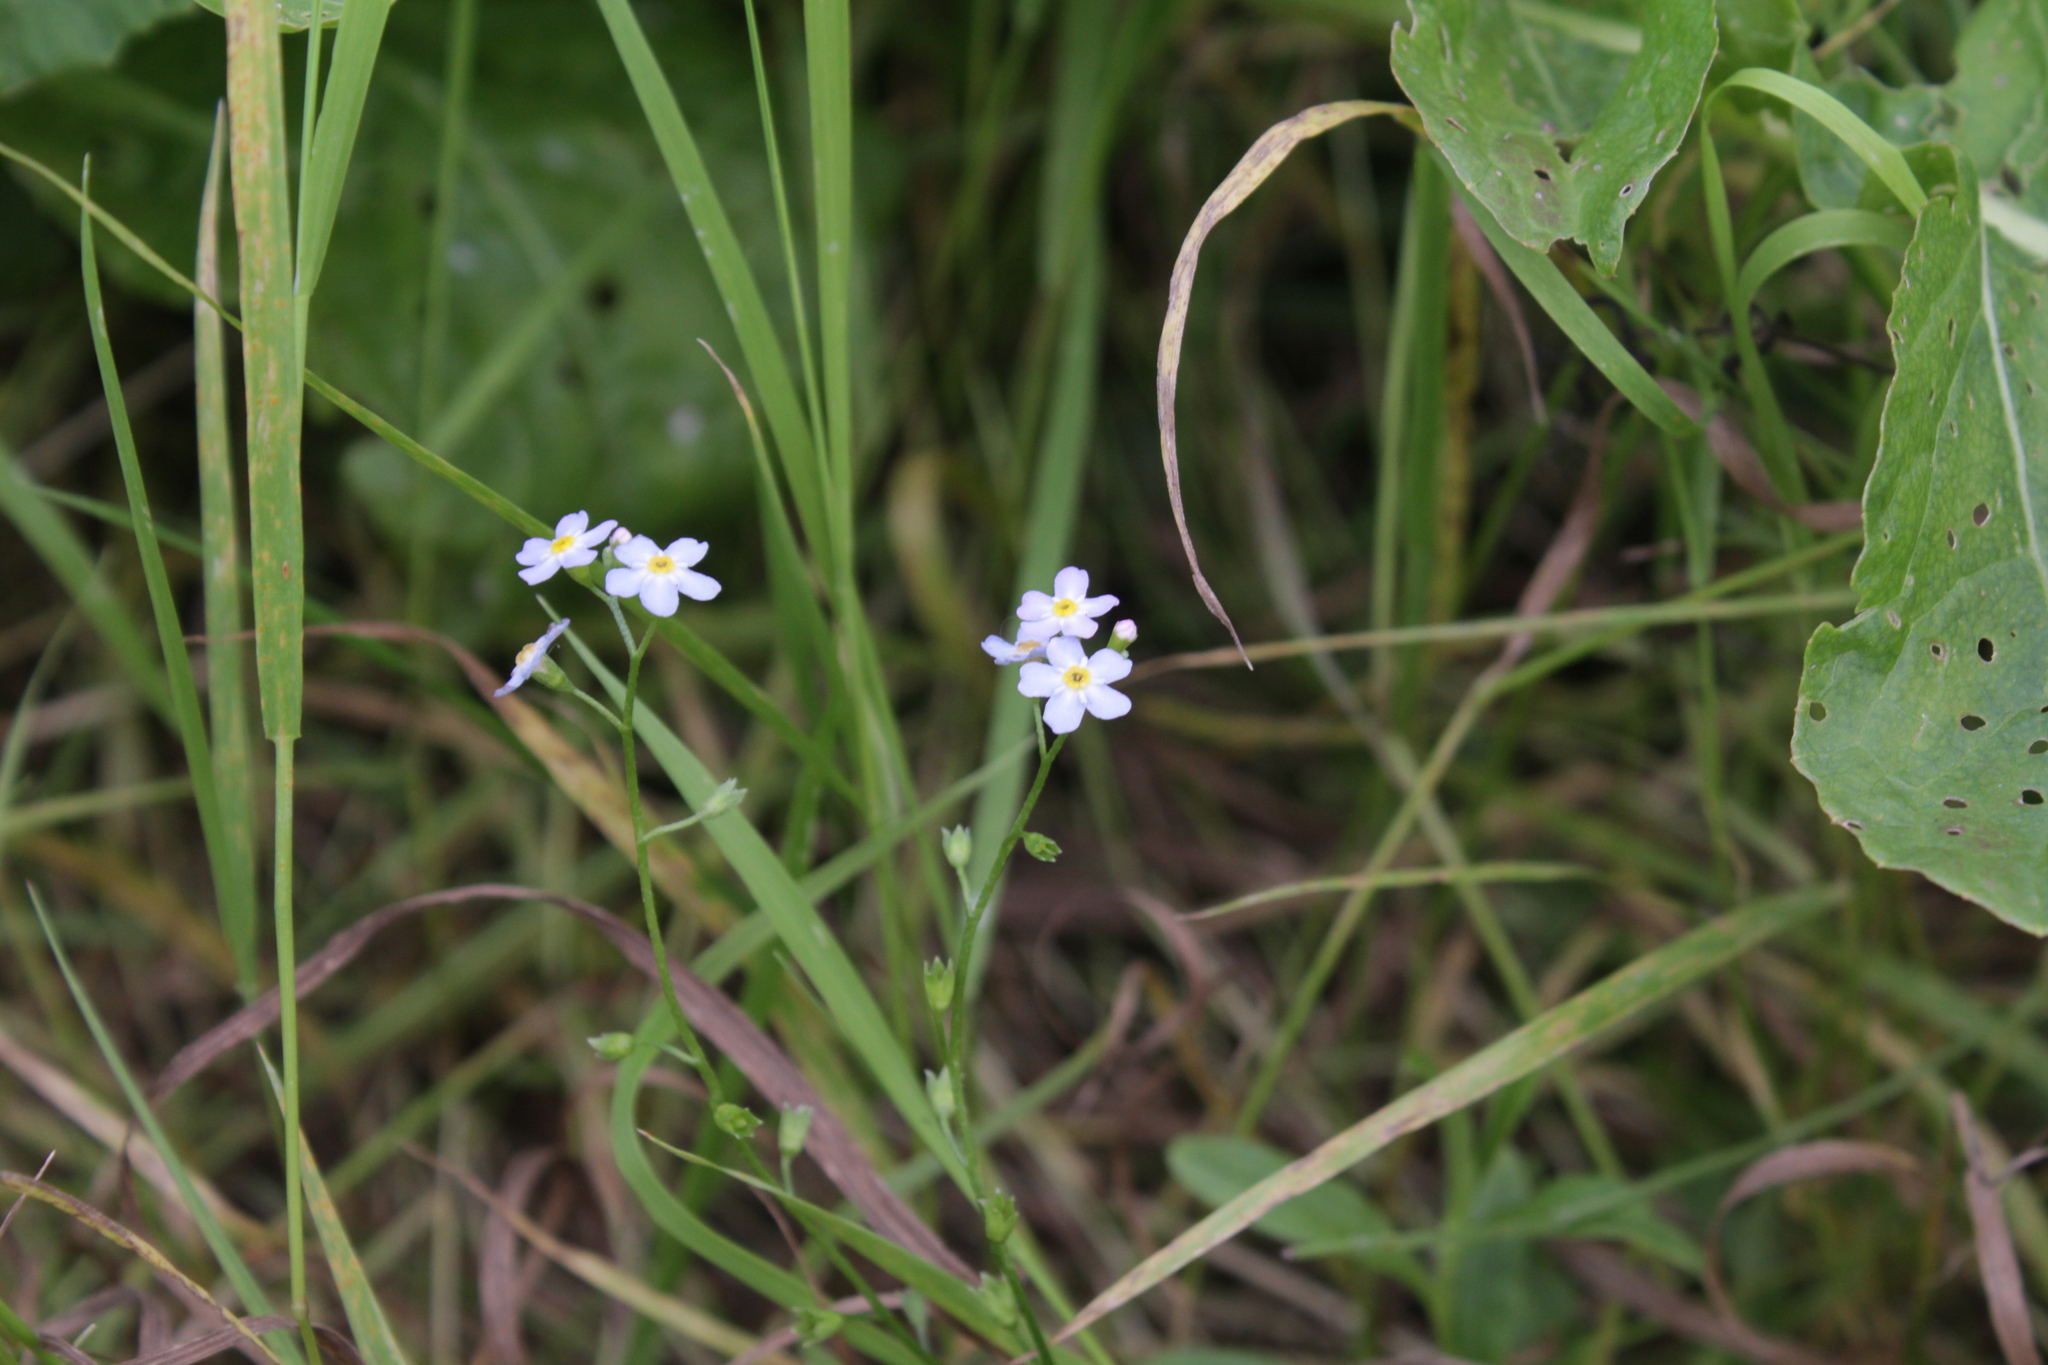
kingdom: Plantae
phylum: Tracheophyta
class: Magnoliopsida
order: Boraginales
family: Boraginaceae
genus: Myosotis
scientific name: Myosotis scorpioides
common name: Water forget-me-not
